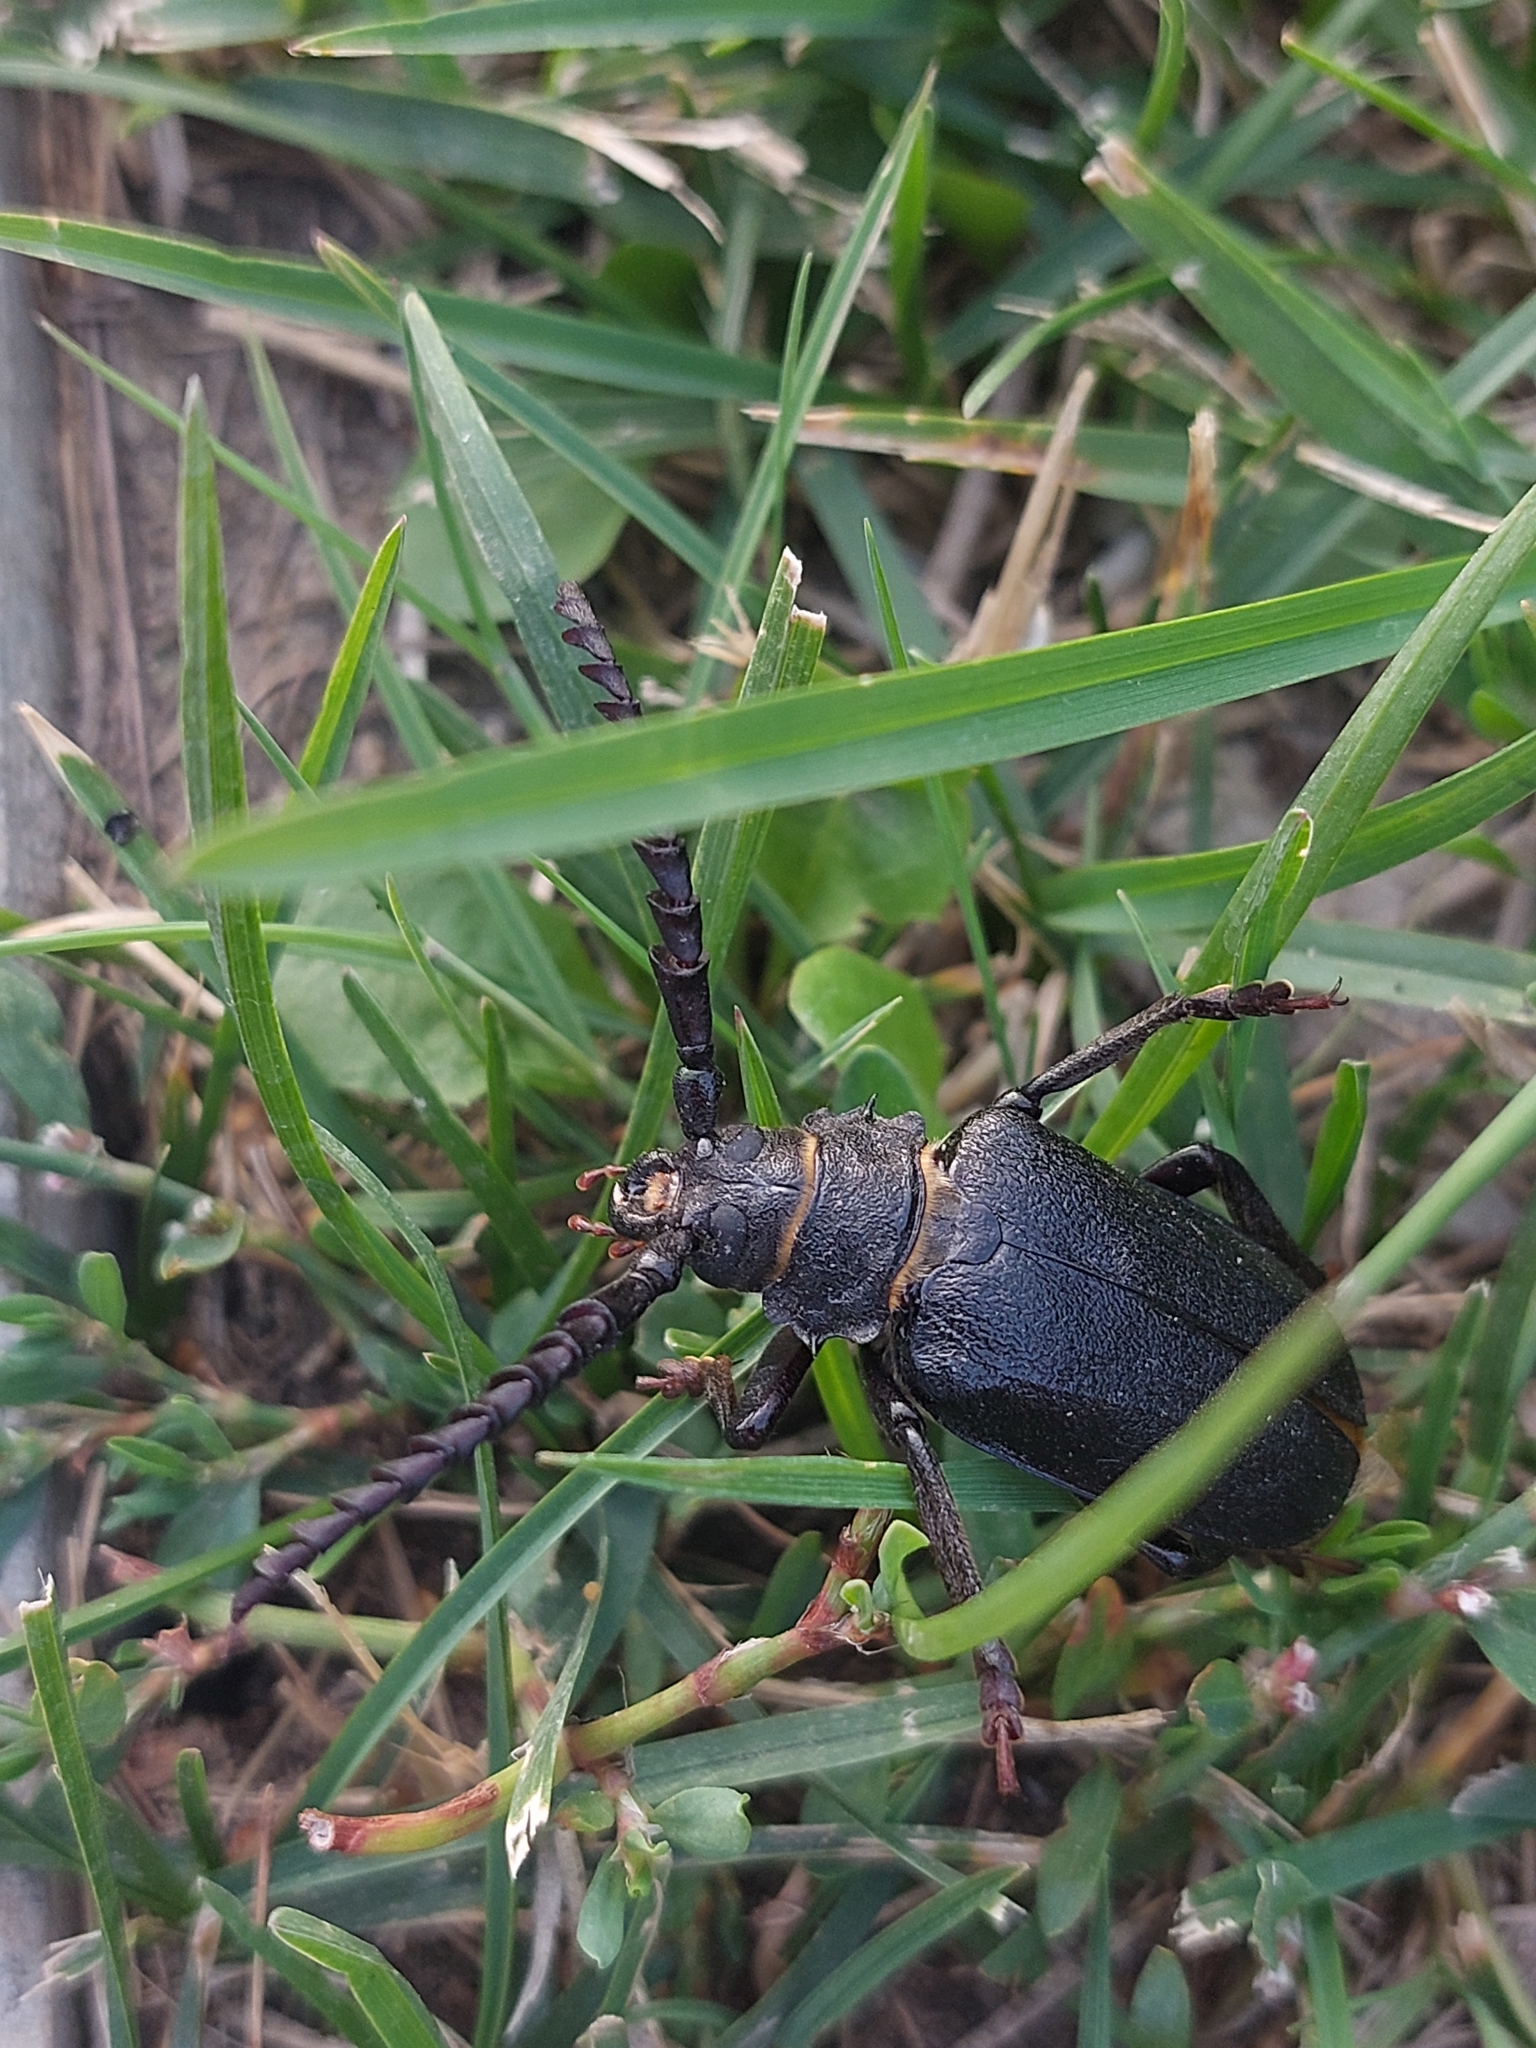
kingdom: Animalia
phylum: Arthropoda
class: Insecta
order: Coleoptera
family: Cerambycidae
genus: Prionus
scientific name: Prionus coriarius
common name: Tanner beetle
